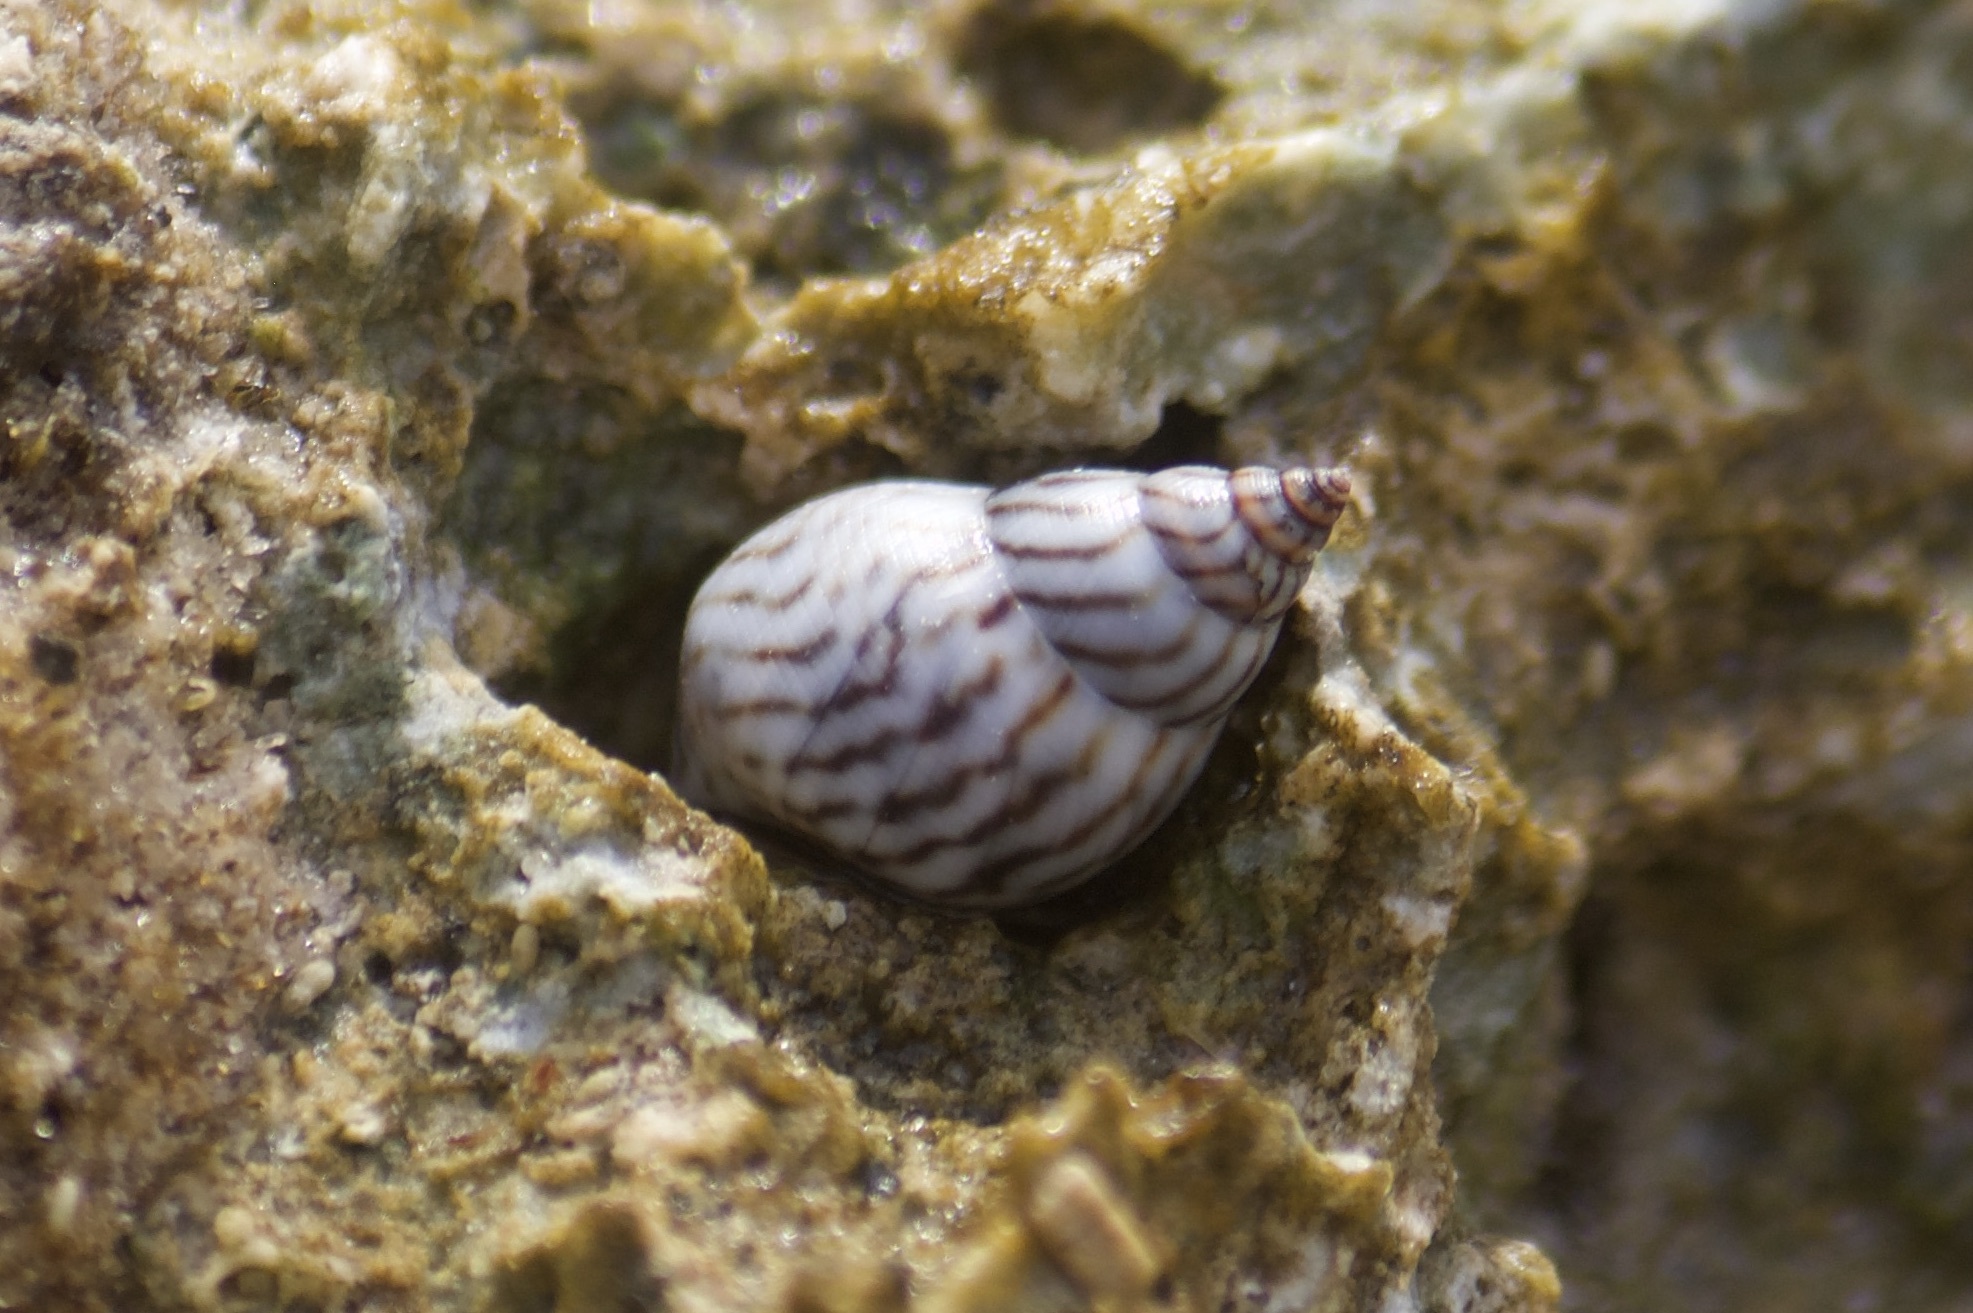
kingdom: Animalia
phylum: Mollusca
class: Gastropoda
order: Littorinimorpha
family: Littorinidae
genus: Echinolittorina
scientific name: Echinolittorina ziczac
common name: Zebra periwinkle
